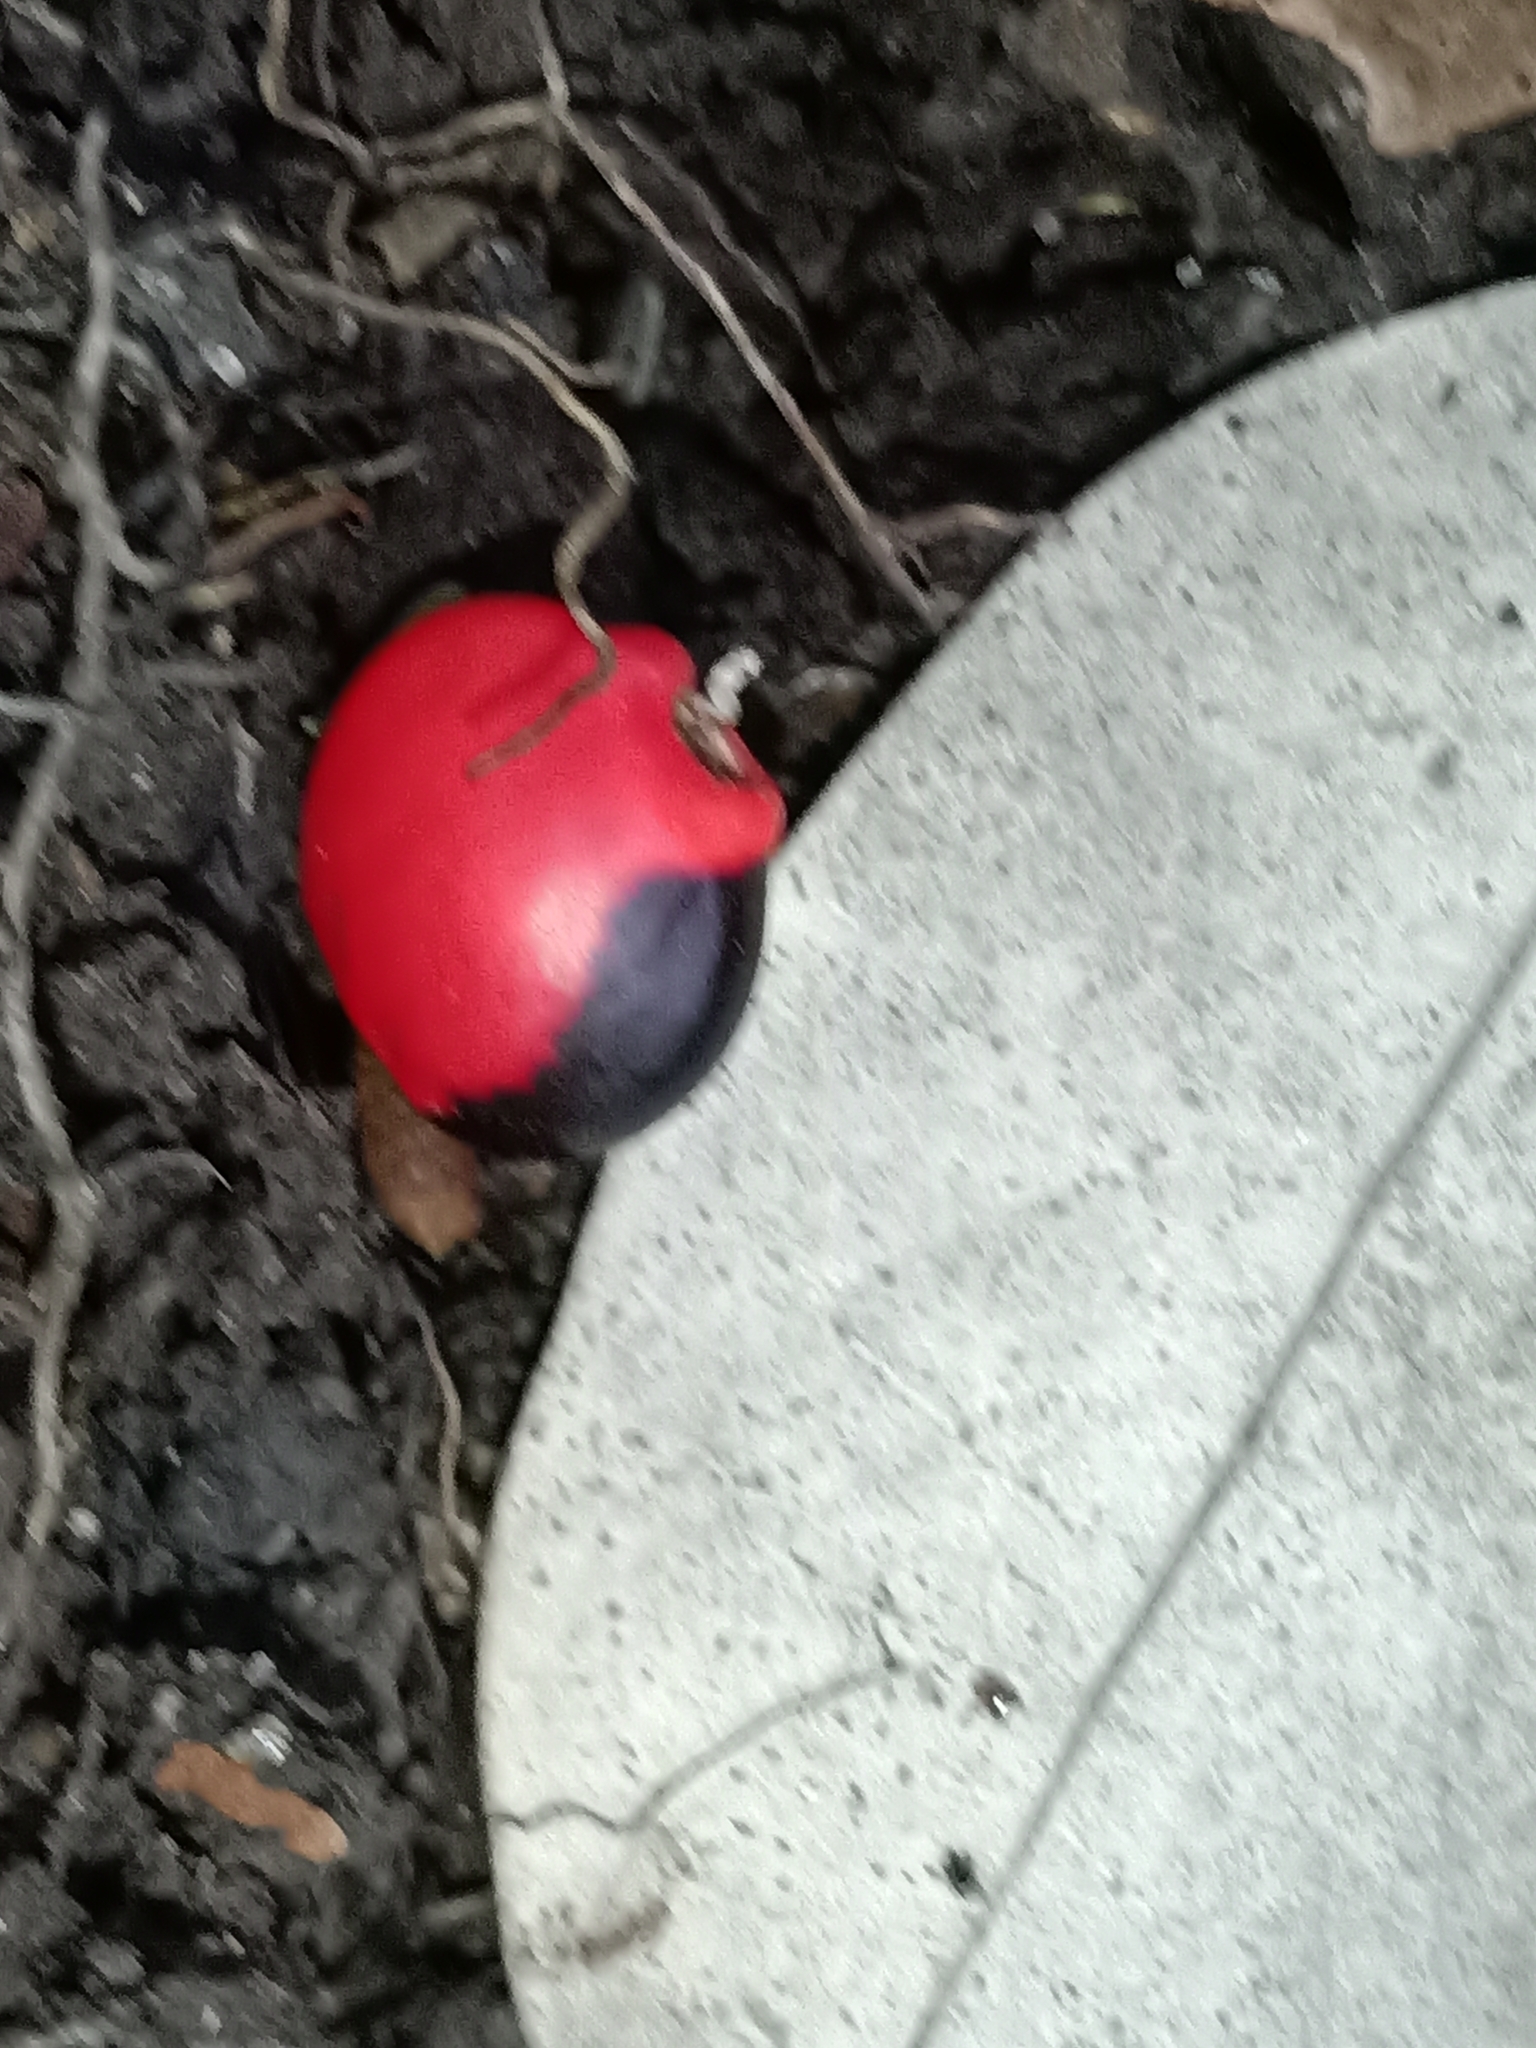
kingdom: Plantae
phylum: Tracheophyta
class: Magnoliopsida
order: Fabales
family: Fabaceae
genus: Ormosia
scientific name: Ormosia
